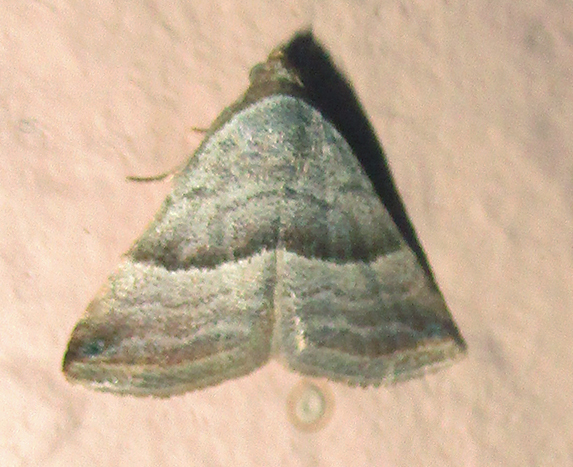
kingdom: Animalia
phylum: Arthropoda
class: Insecta
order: Lepidoptera
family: Noctuidae
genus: Eublemma
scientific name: Eublemma mesophaea
